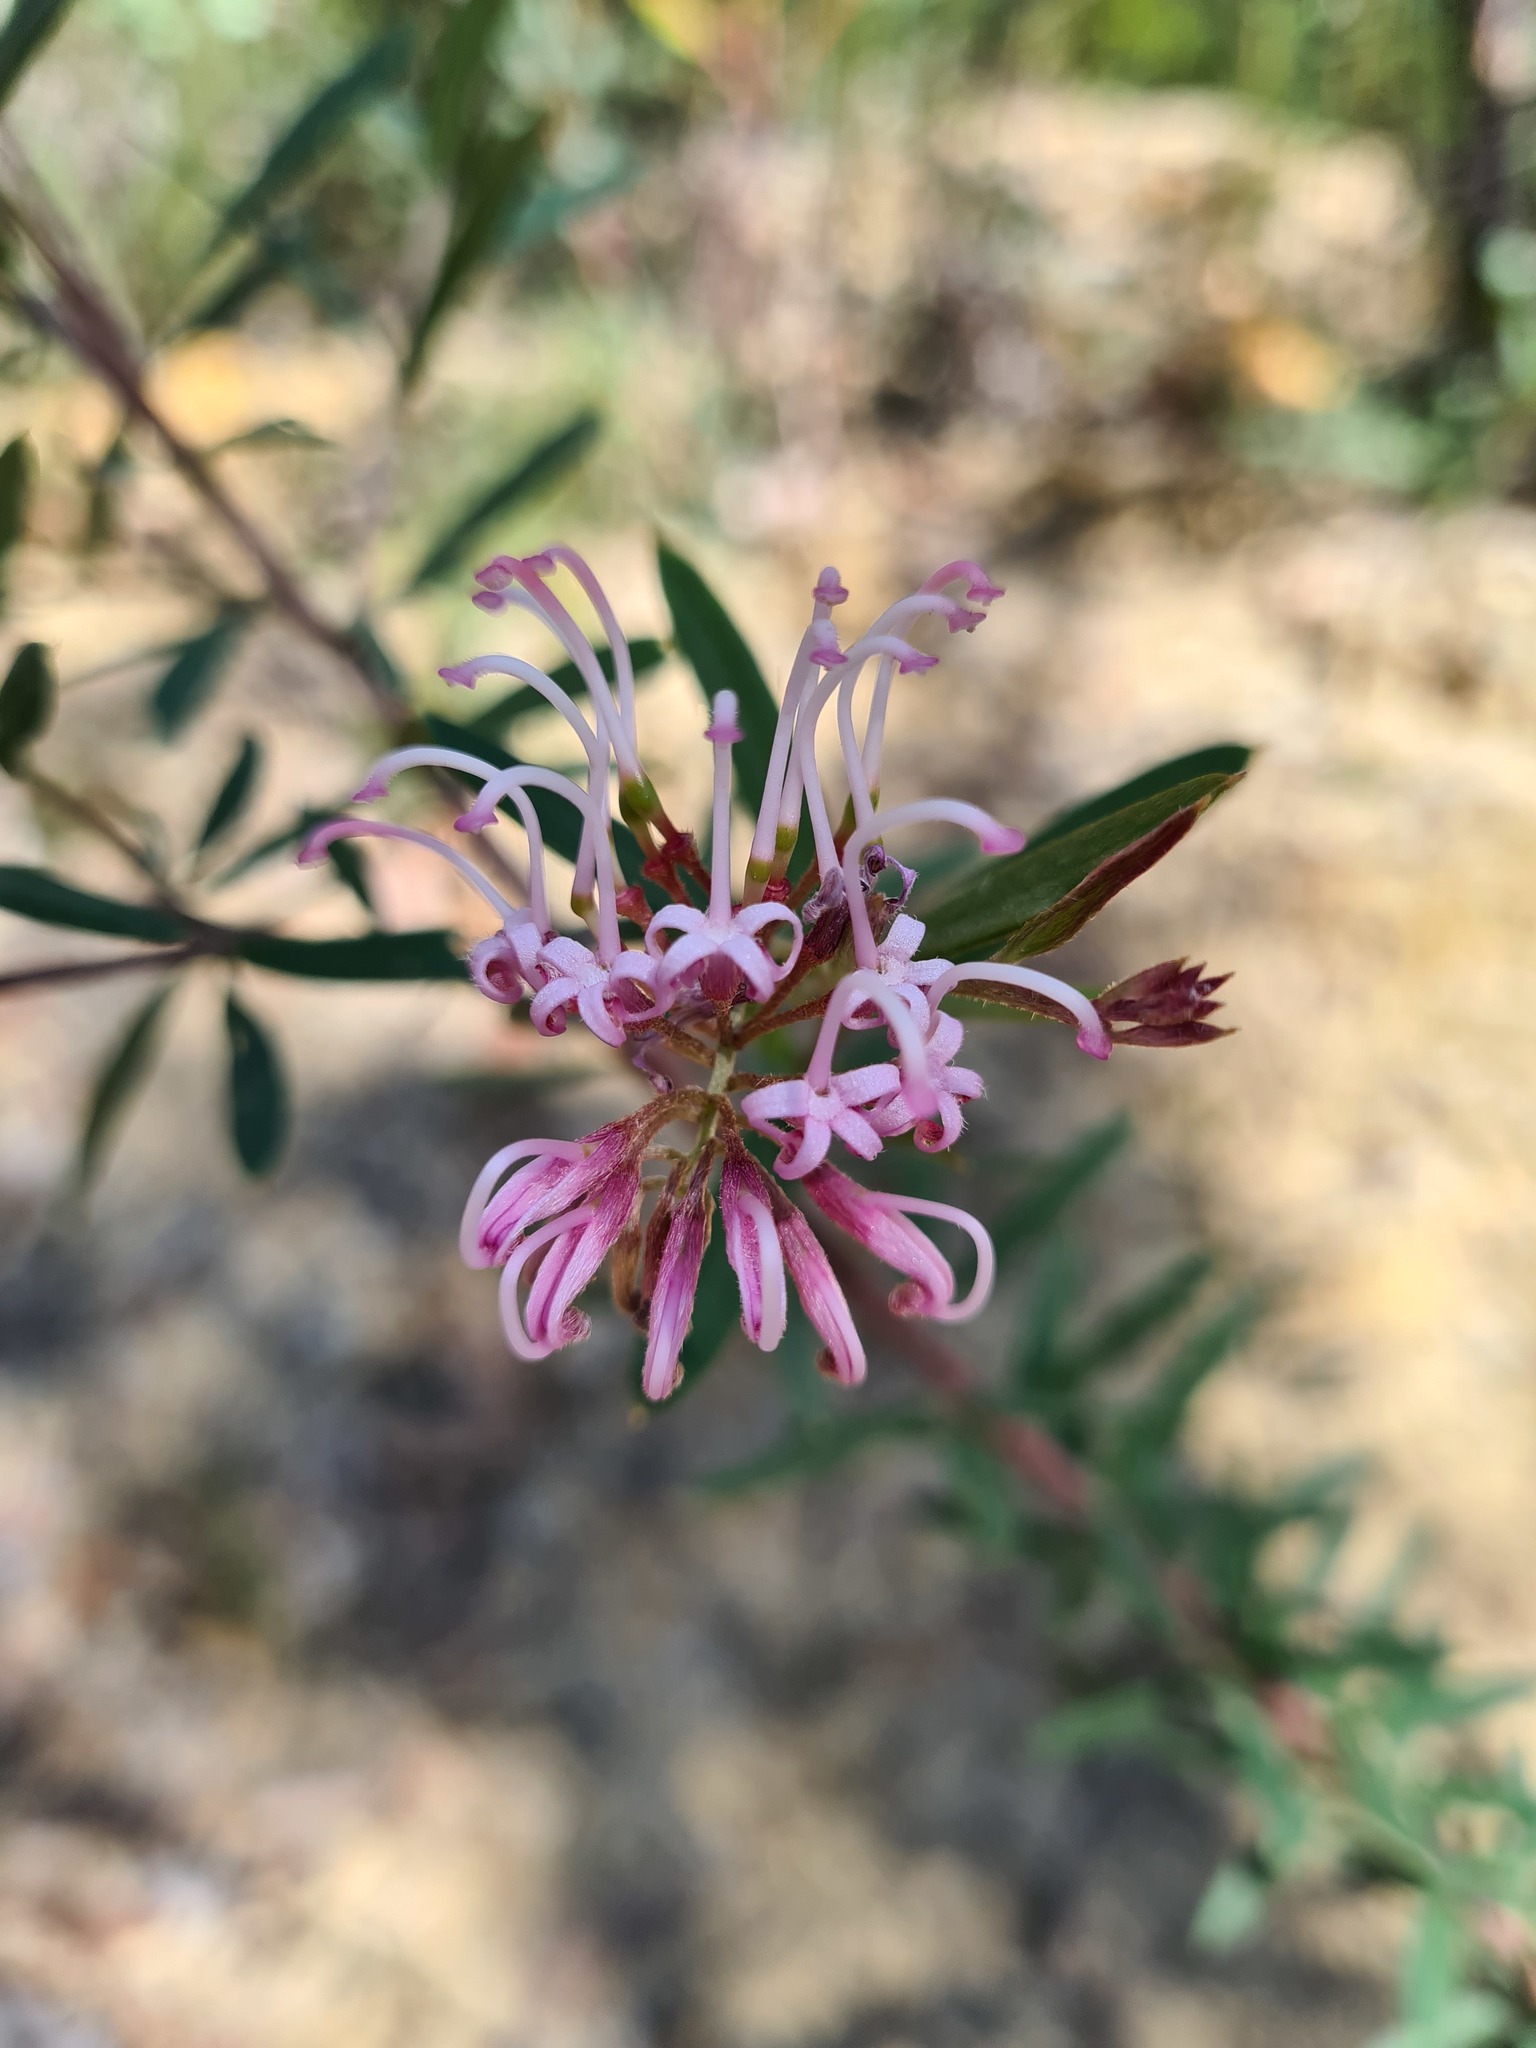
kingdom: Plantae
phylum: Tracheophyta
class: Magnoliopsida
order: Proteales
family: Proteaceae
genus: Grevillea
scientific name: Grevillea sericea
